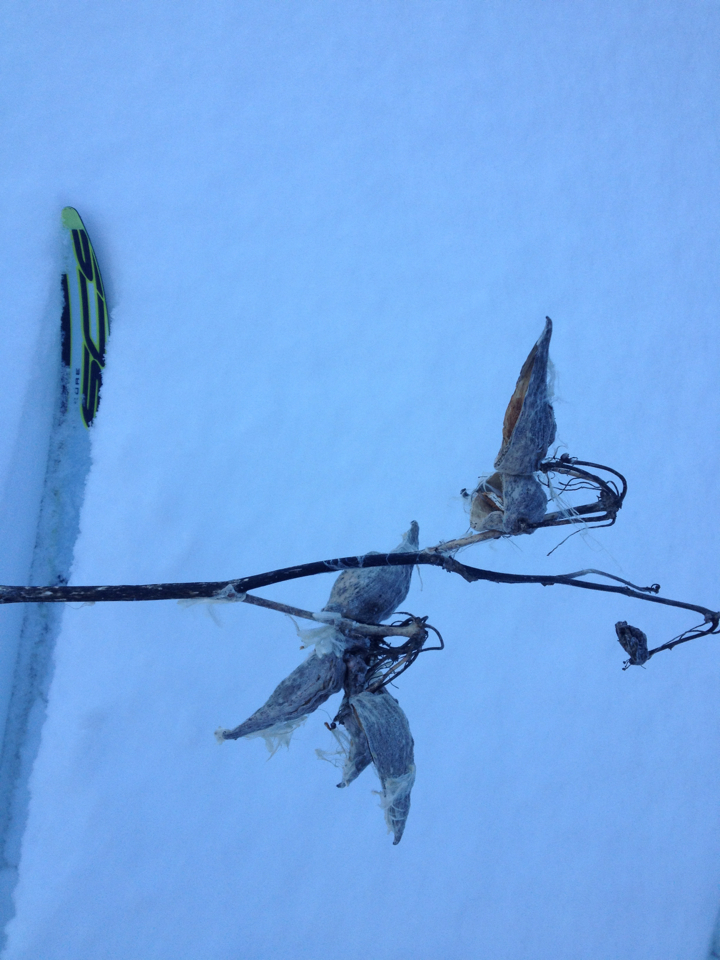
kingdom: Plantae
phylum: Tracheophyta
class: Magnoliopsida
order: Gentianales
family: Apocynaceae
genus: Asclepias
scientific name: Asclepias syriaca
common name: Common milkweed
